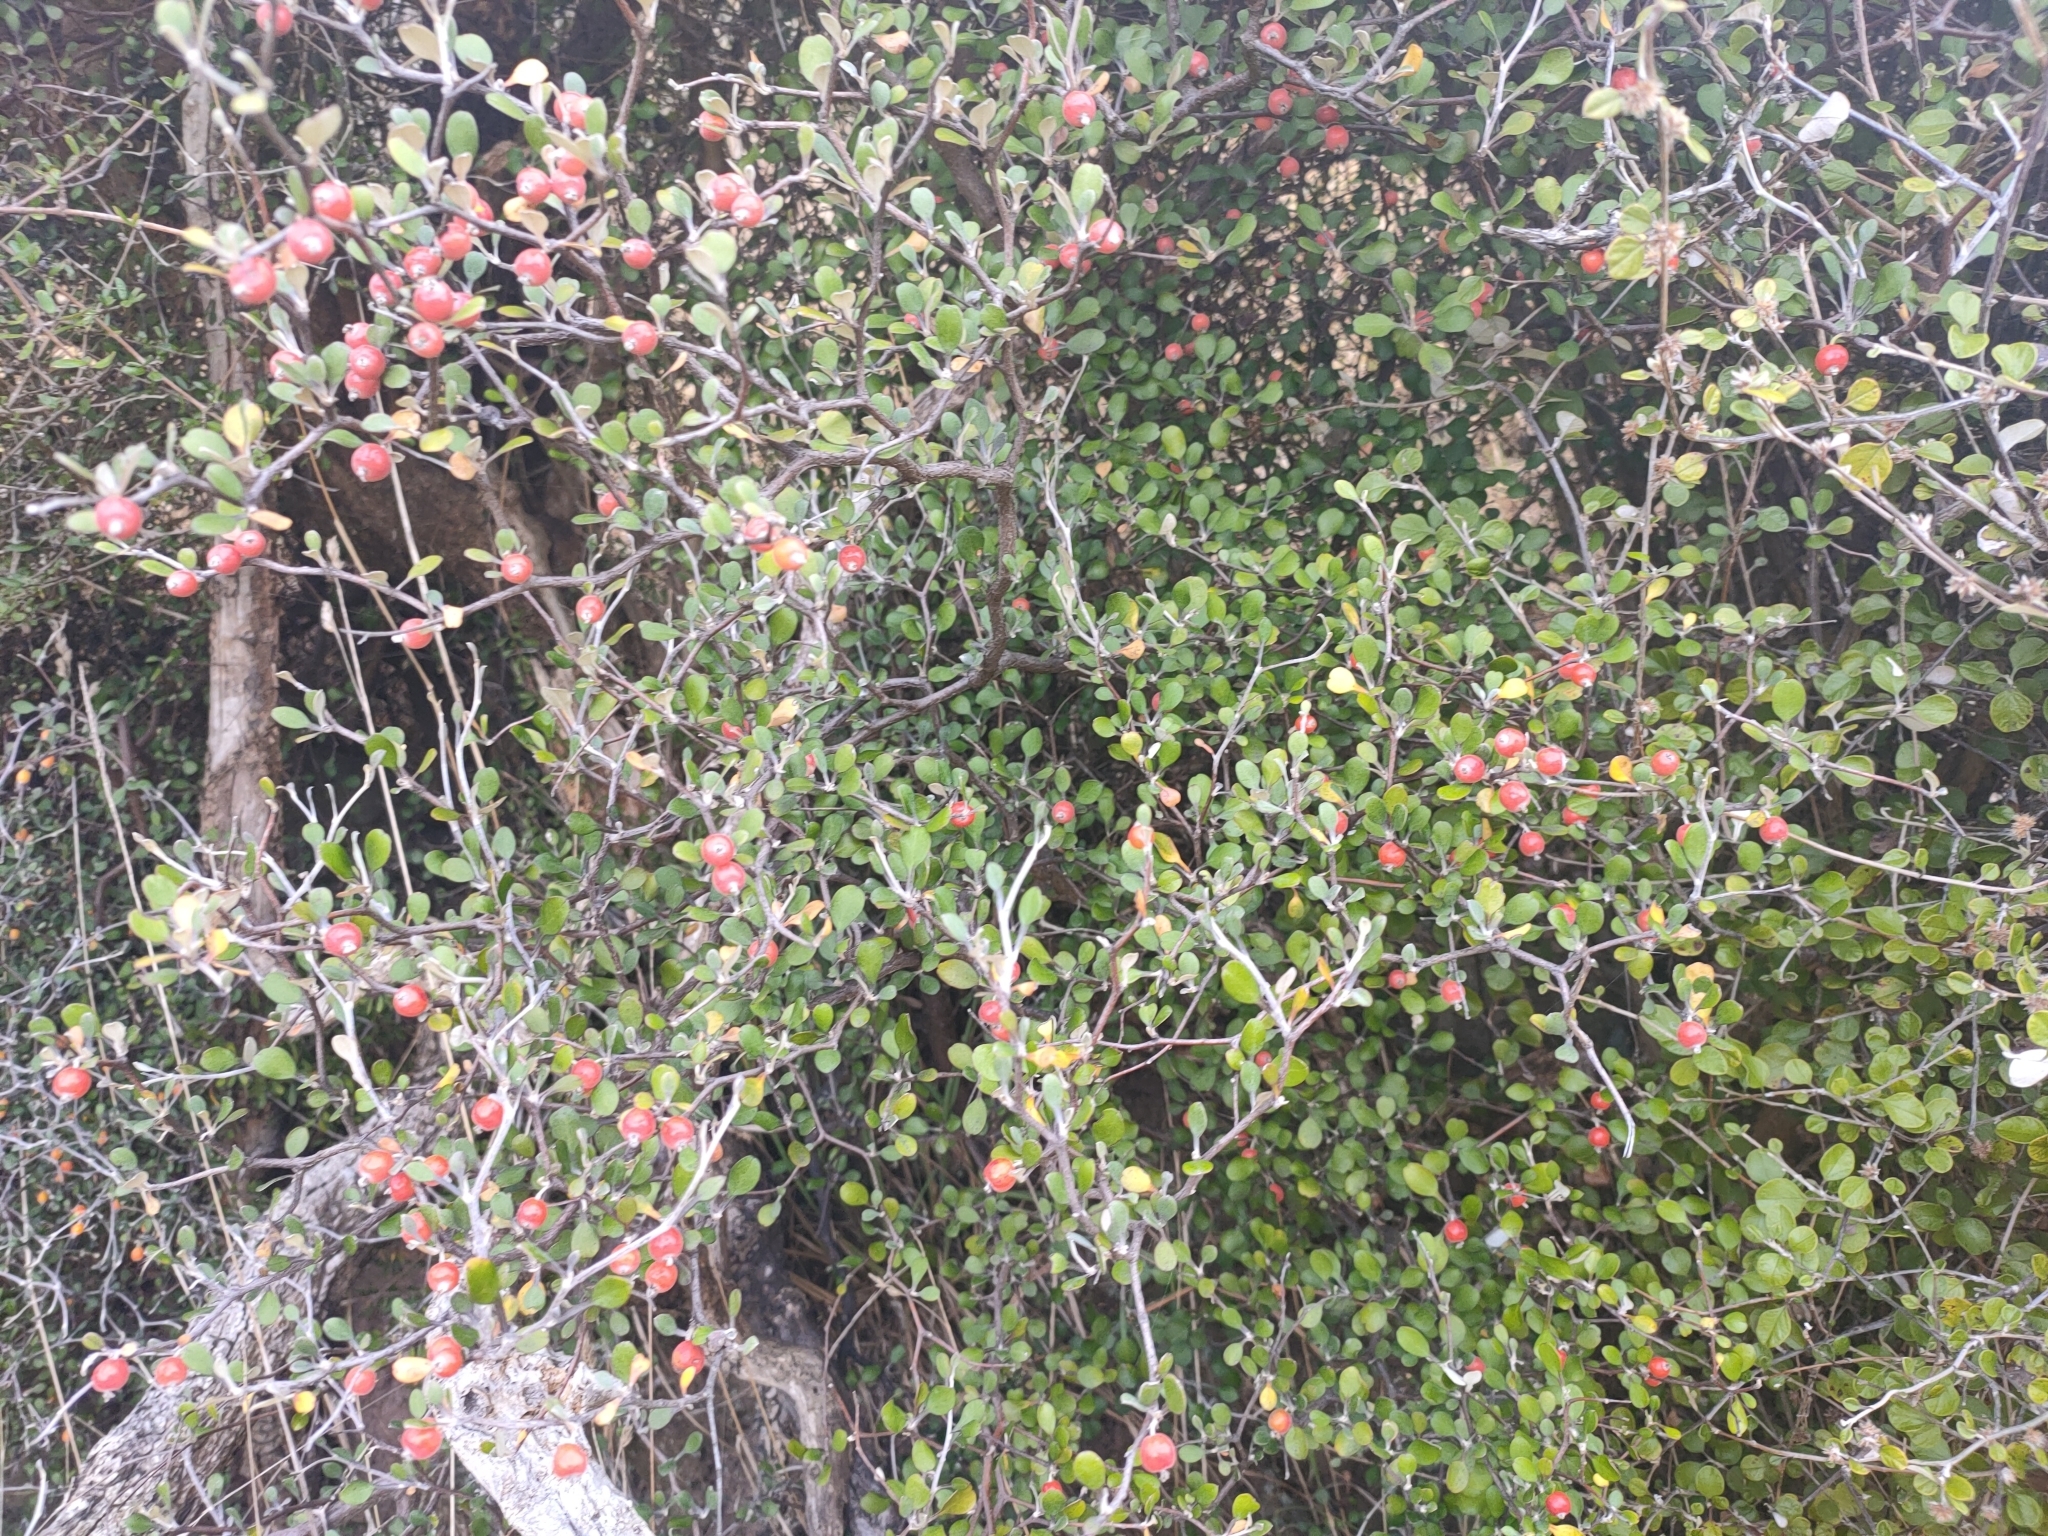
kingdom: Plantae
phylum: Tracheophyta
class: Magnoliopsida
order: Asterales
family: Argophyllaceae
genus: Corokia
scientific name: Corokia cotoneaster
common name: Wire nettingbush
